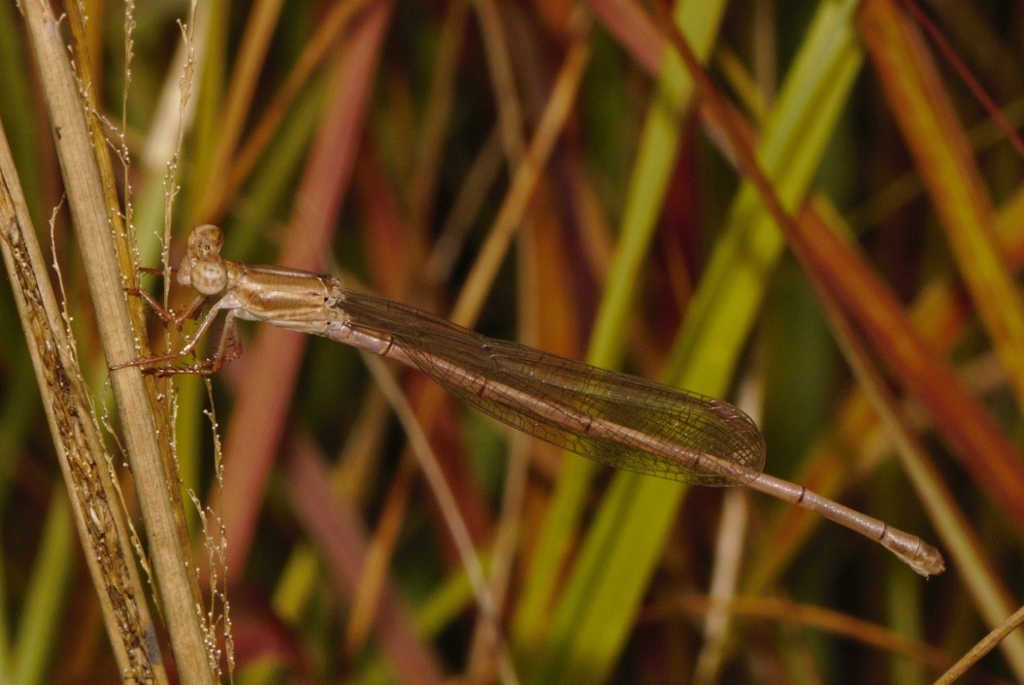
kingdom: Animalia
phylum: Arthropoda
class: Insecta
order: Odonata
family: Coenagrionidae
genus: Ceriagrion
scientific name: Ceriagrion glabrum
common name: Common pond damsel
